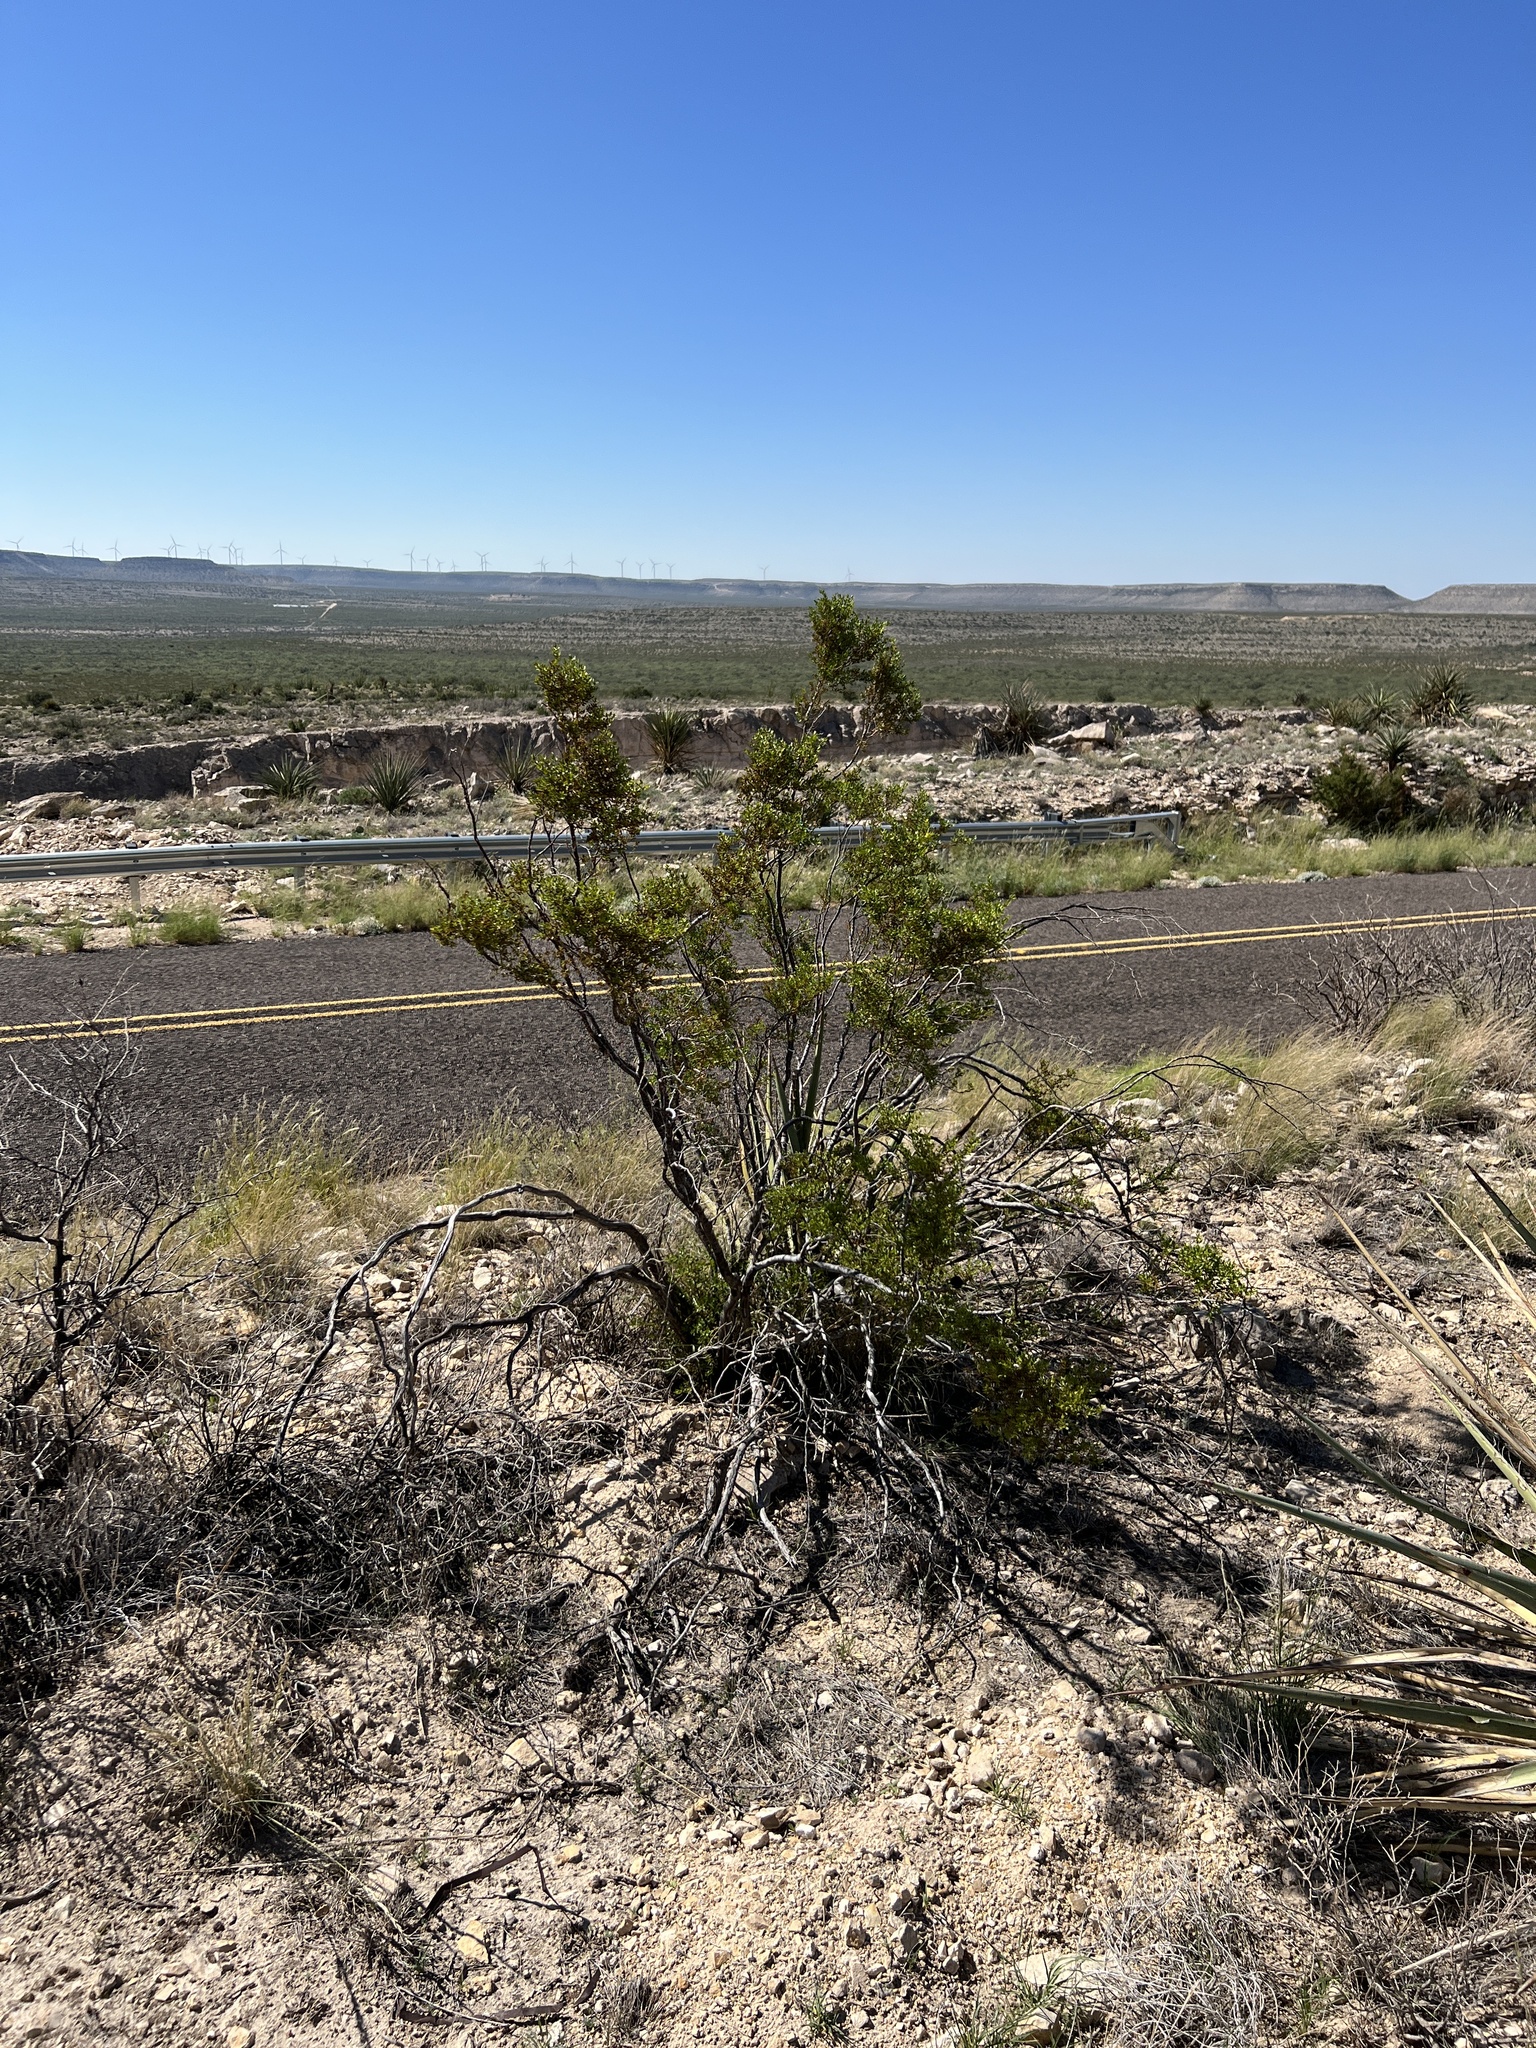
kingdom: Plantae
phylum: Tracheophyta
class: Magnoliopsida
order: Zygophyllales
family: Zygophyllaceae
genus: Larrea
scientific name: Larrea tridentata
